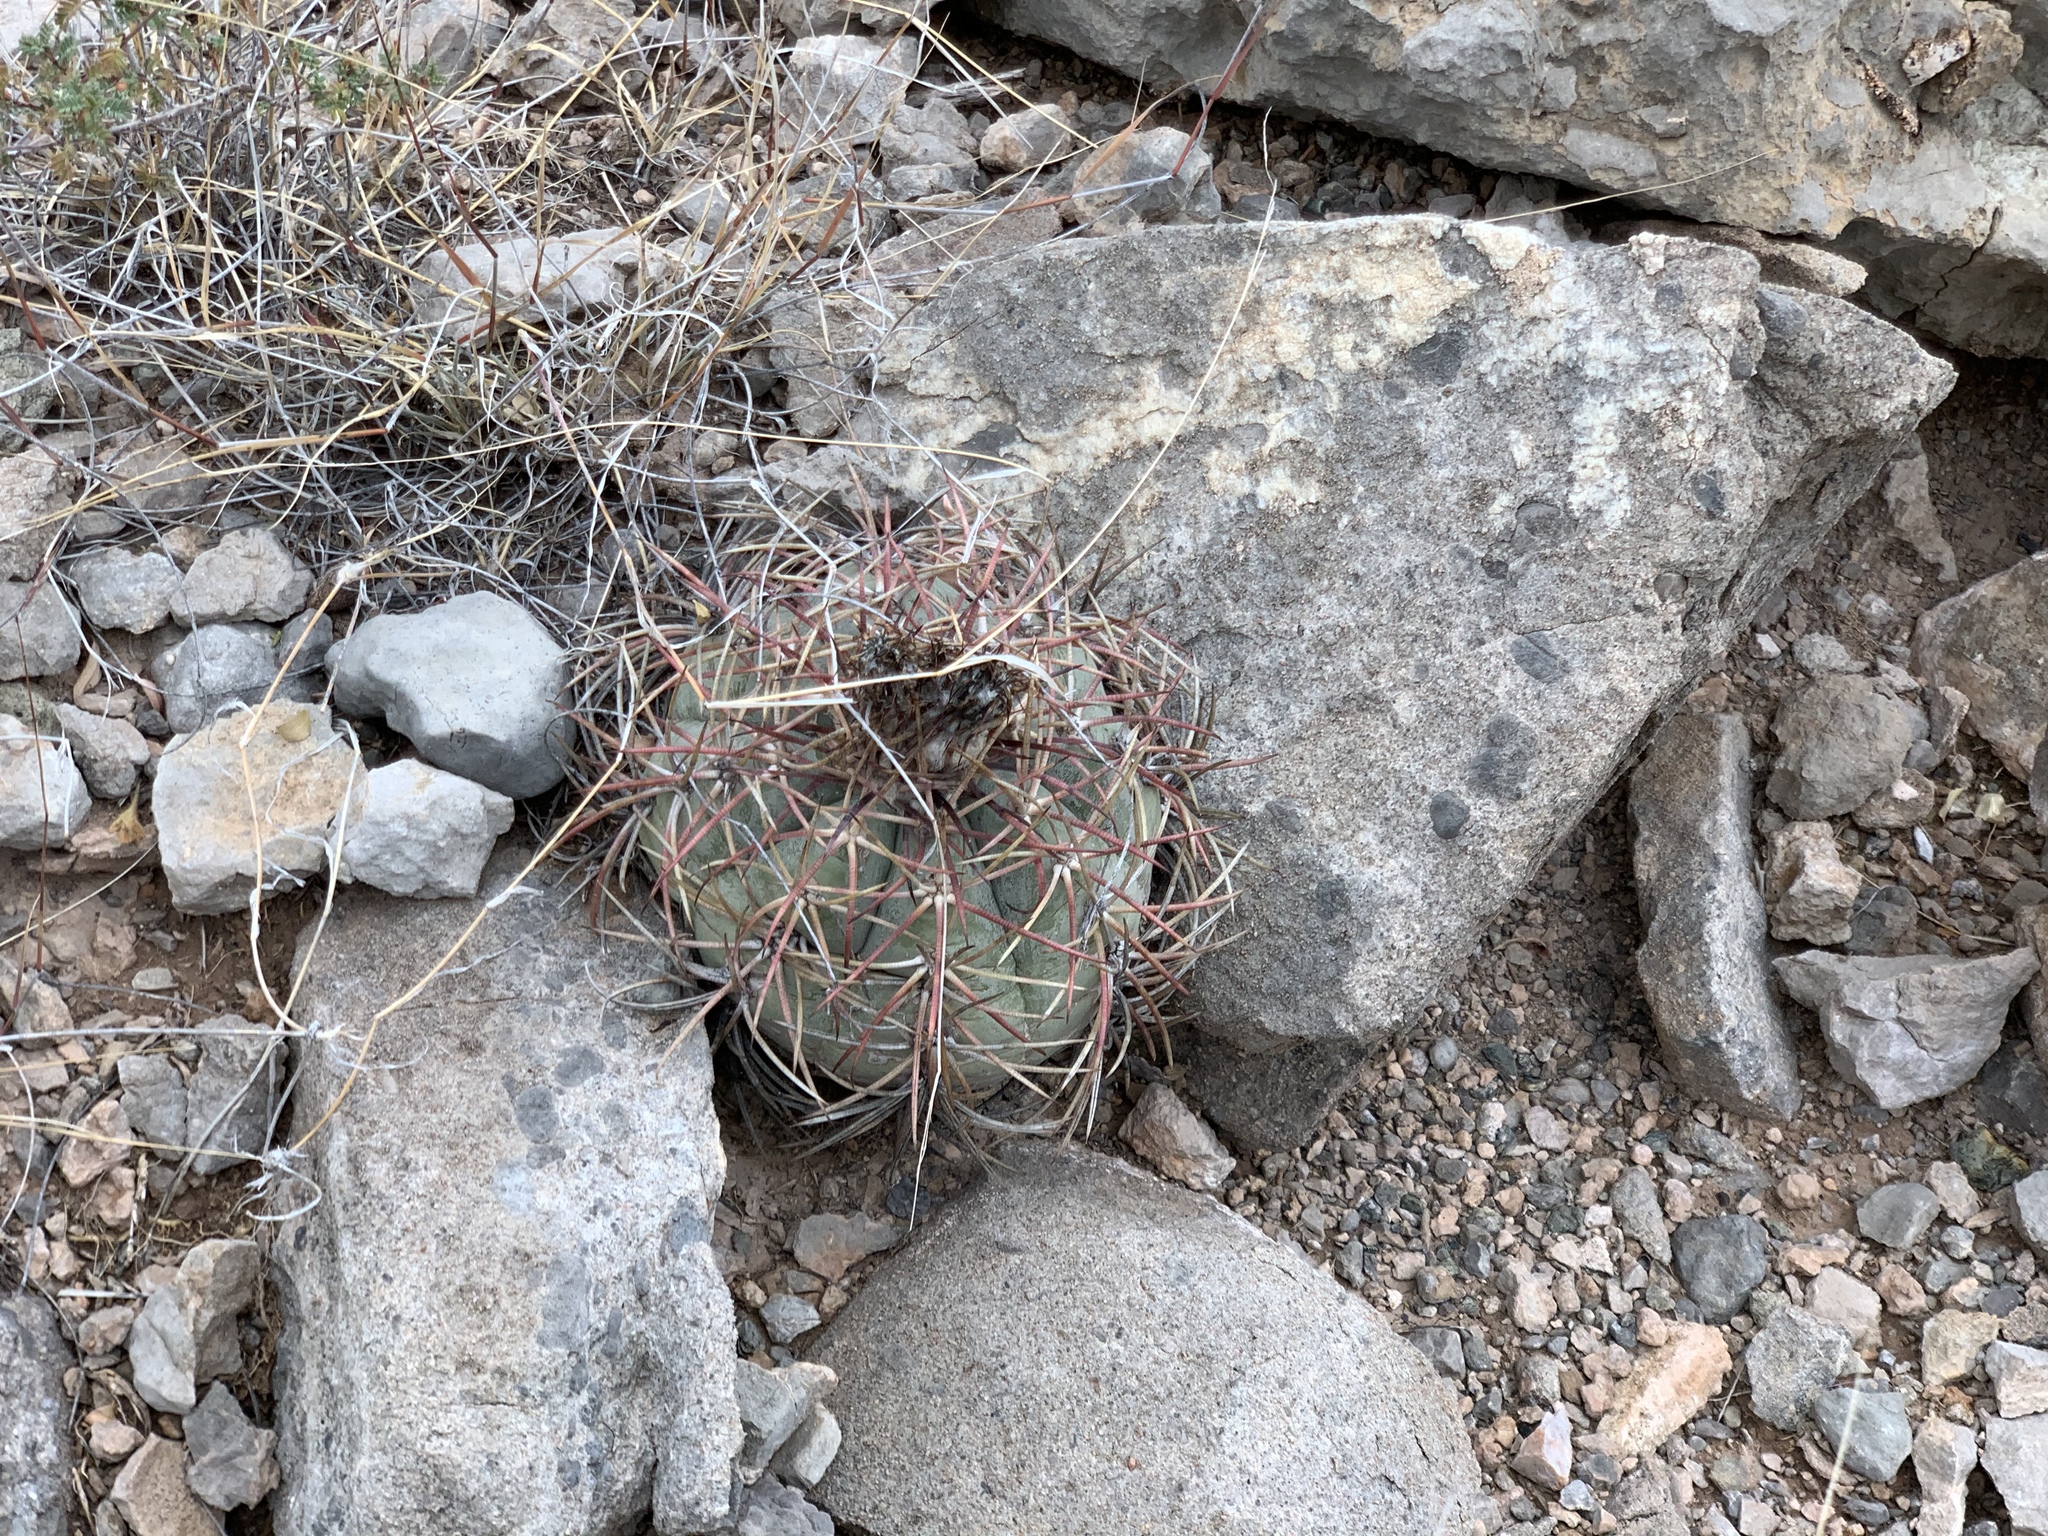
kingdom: Plantae
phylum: Tracheophyta
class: Magnoliopsida
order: Caryophyllales
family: Cactaceae
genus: Echinocactus
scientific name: Echinocactus horizonthalonius
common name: Devilshead
